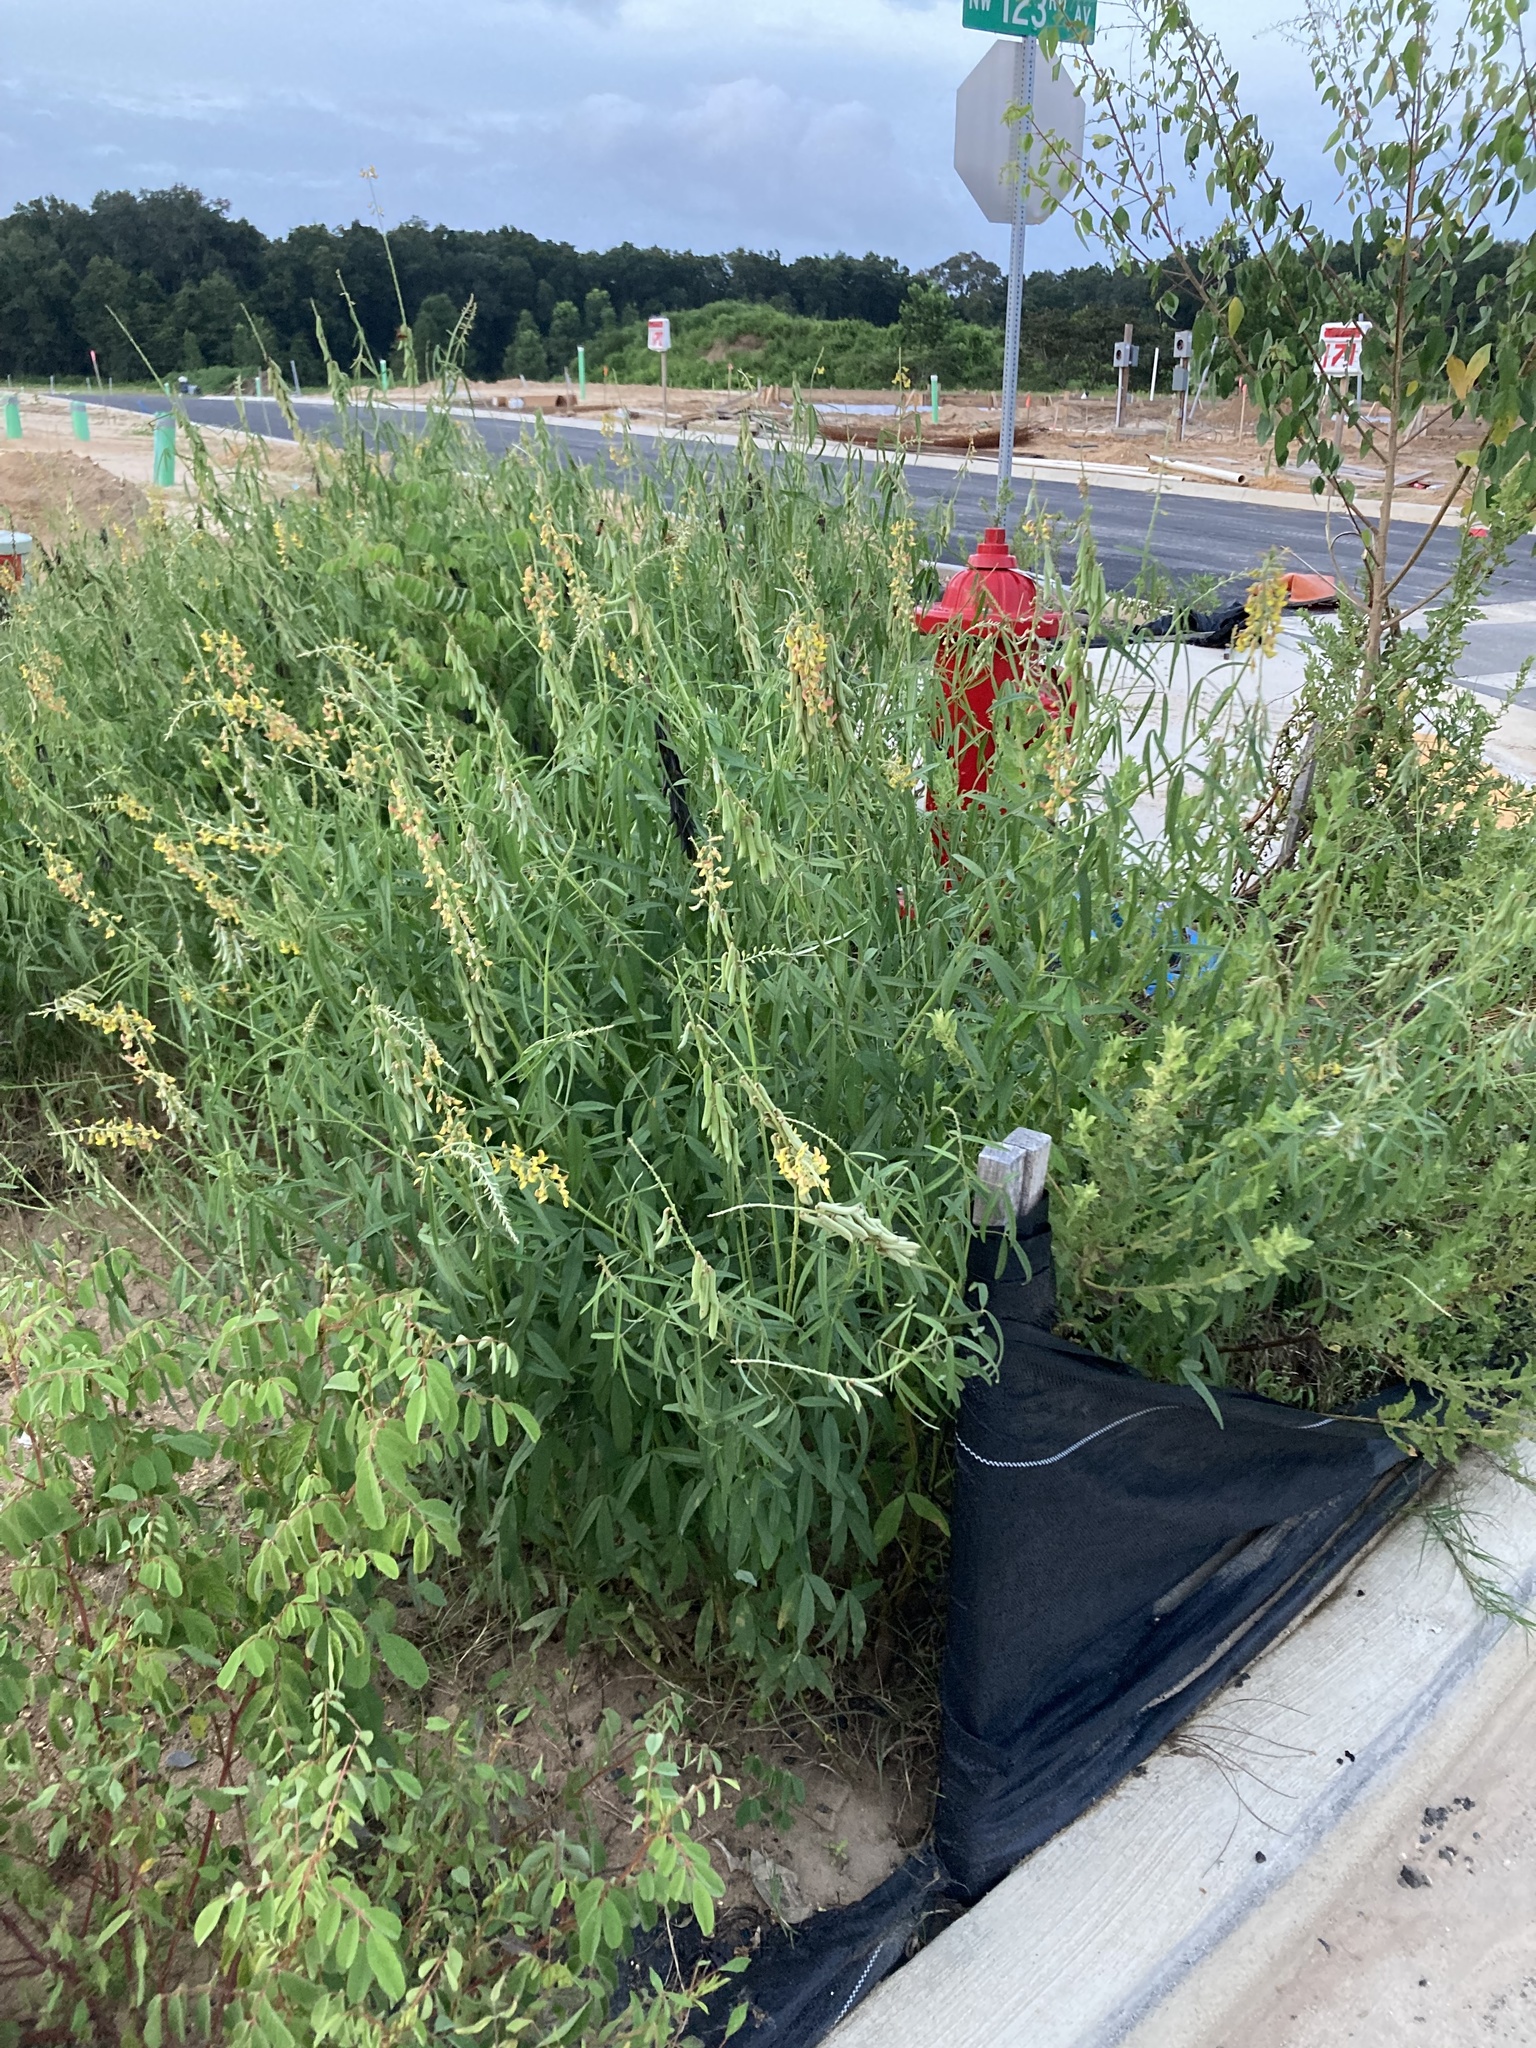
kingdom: Plantae
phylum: Tracheophyta
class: Magnoliopsida
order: Fabales
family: Fabaceae
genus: Crotalaria
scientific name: Crotalaria lanceolata
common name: Lanceleaf rattlebox
